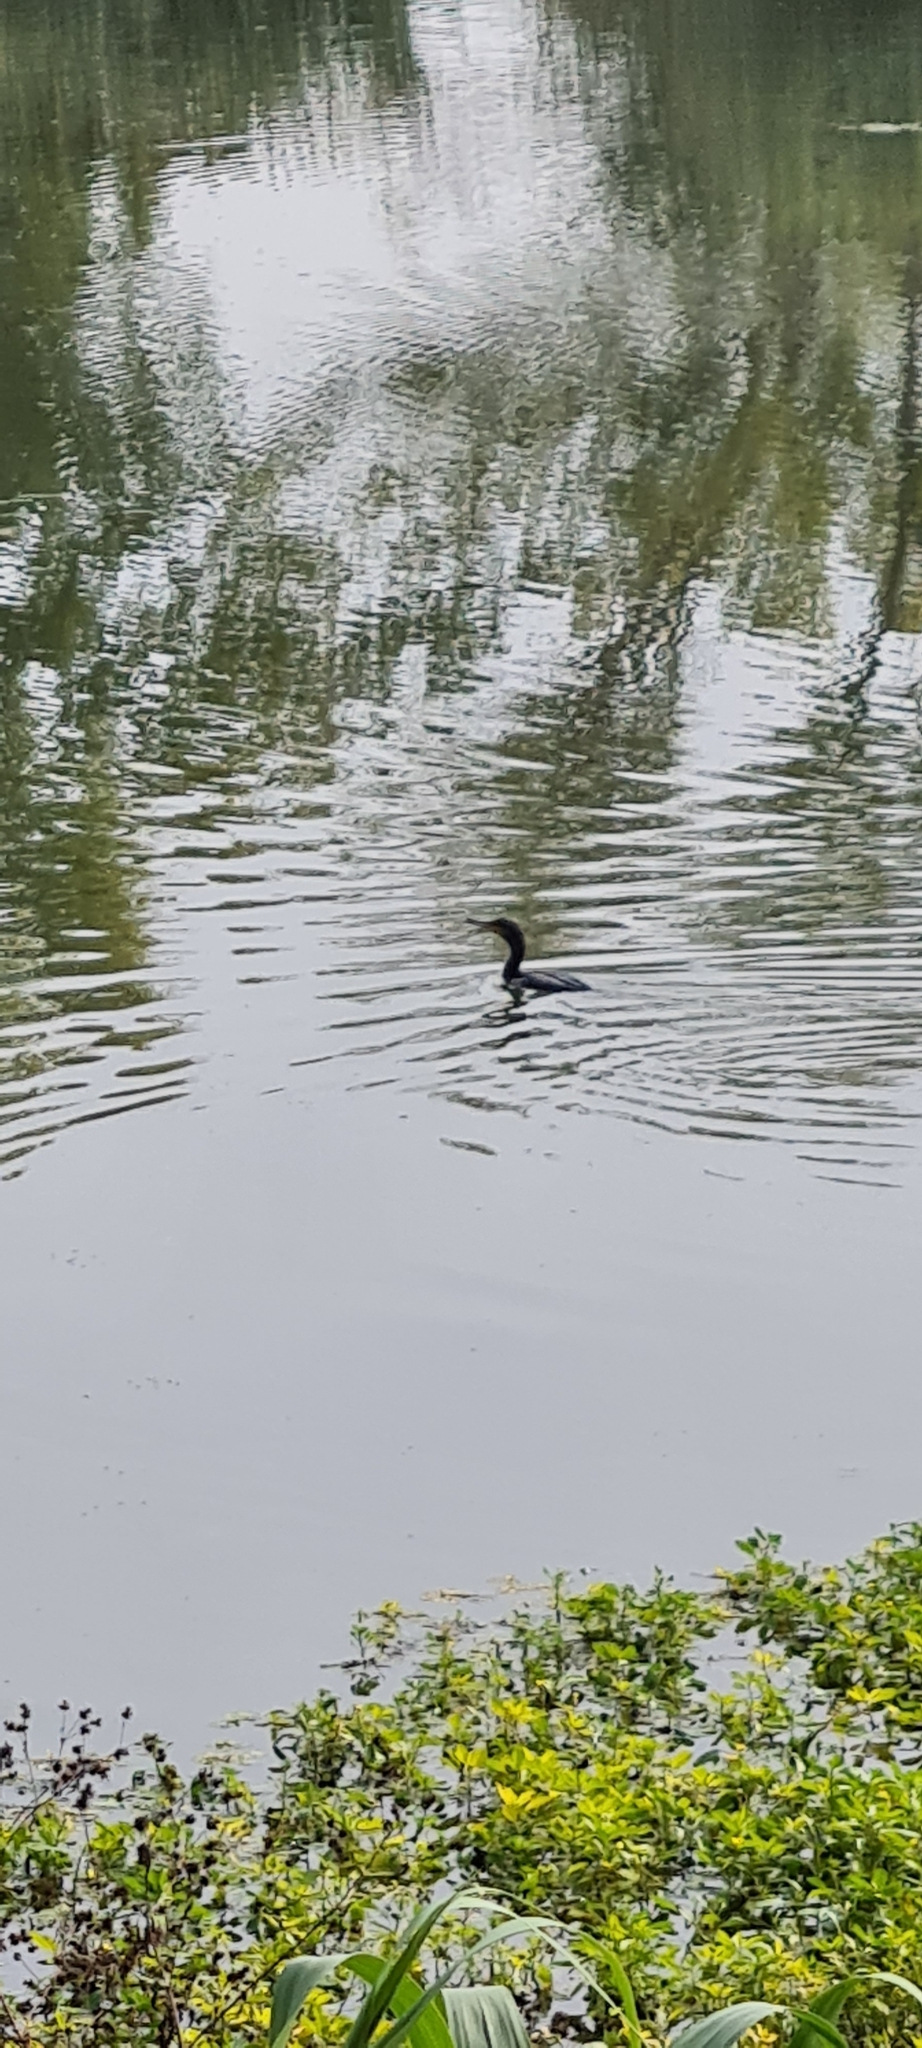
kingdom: Animalia
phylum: Chordata
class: Aves
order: Suliformes
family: Phalacrocoracidae
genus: Phalacrocorax
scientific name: Phalacrocorax carbo
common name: Great cormorant
